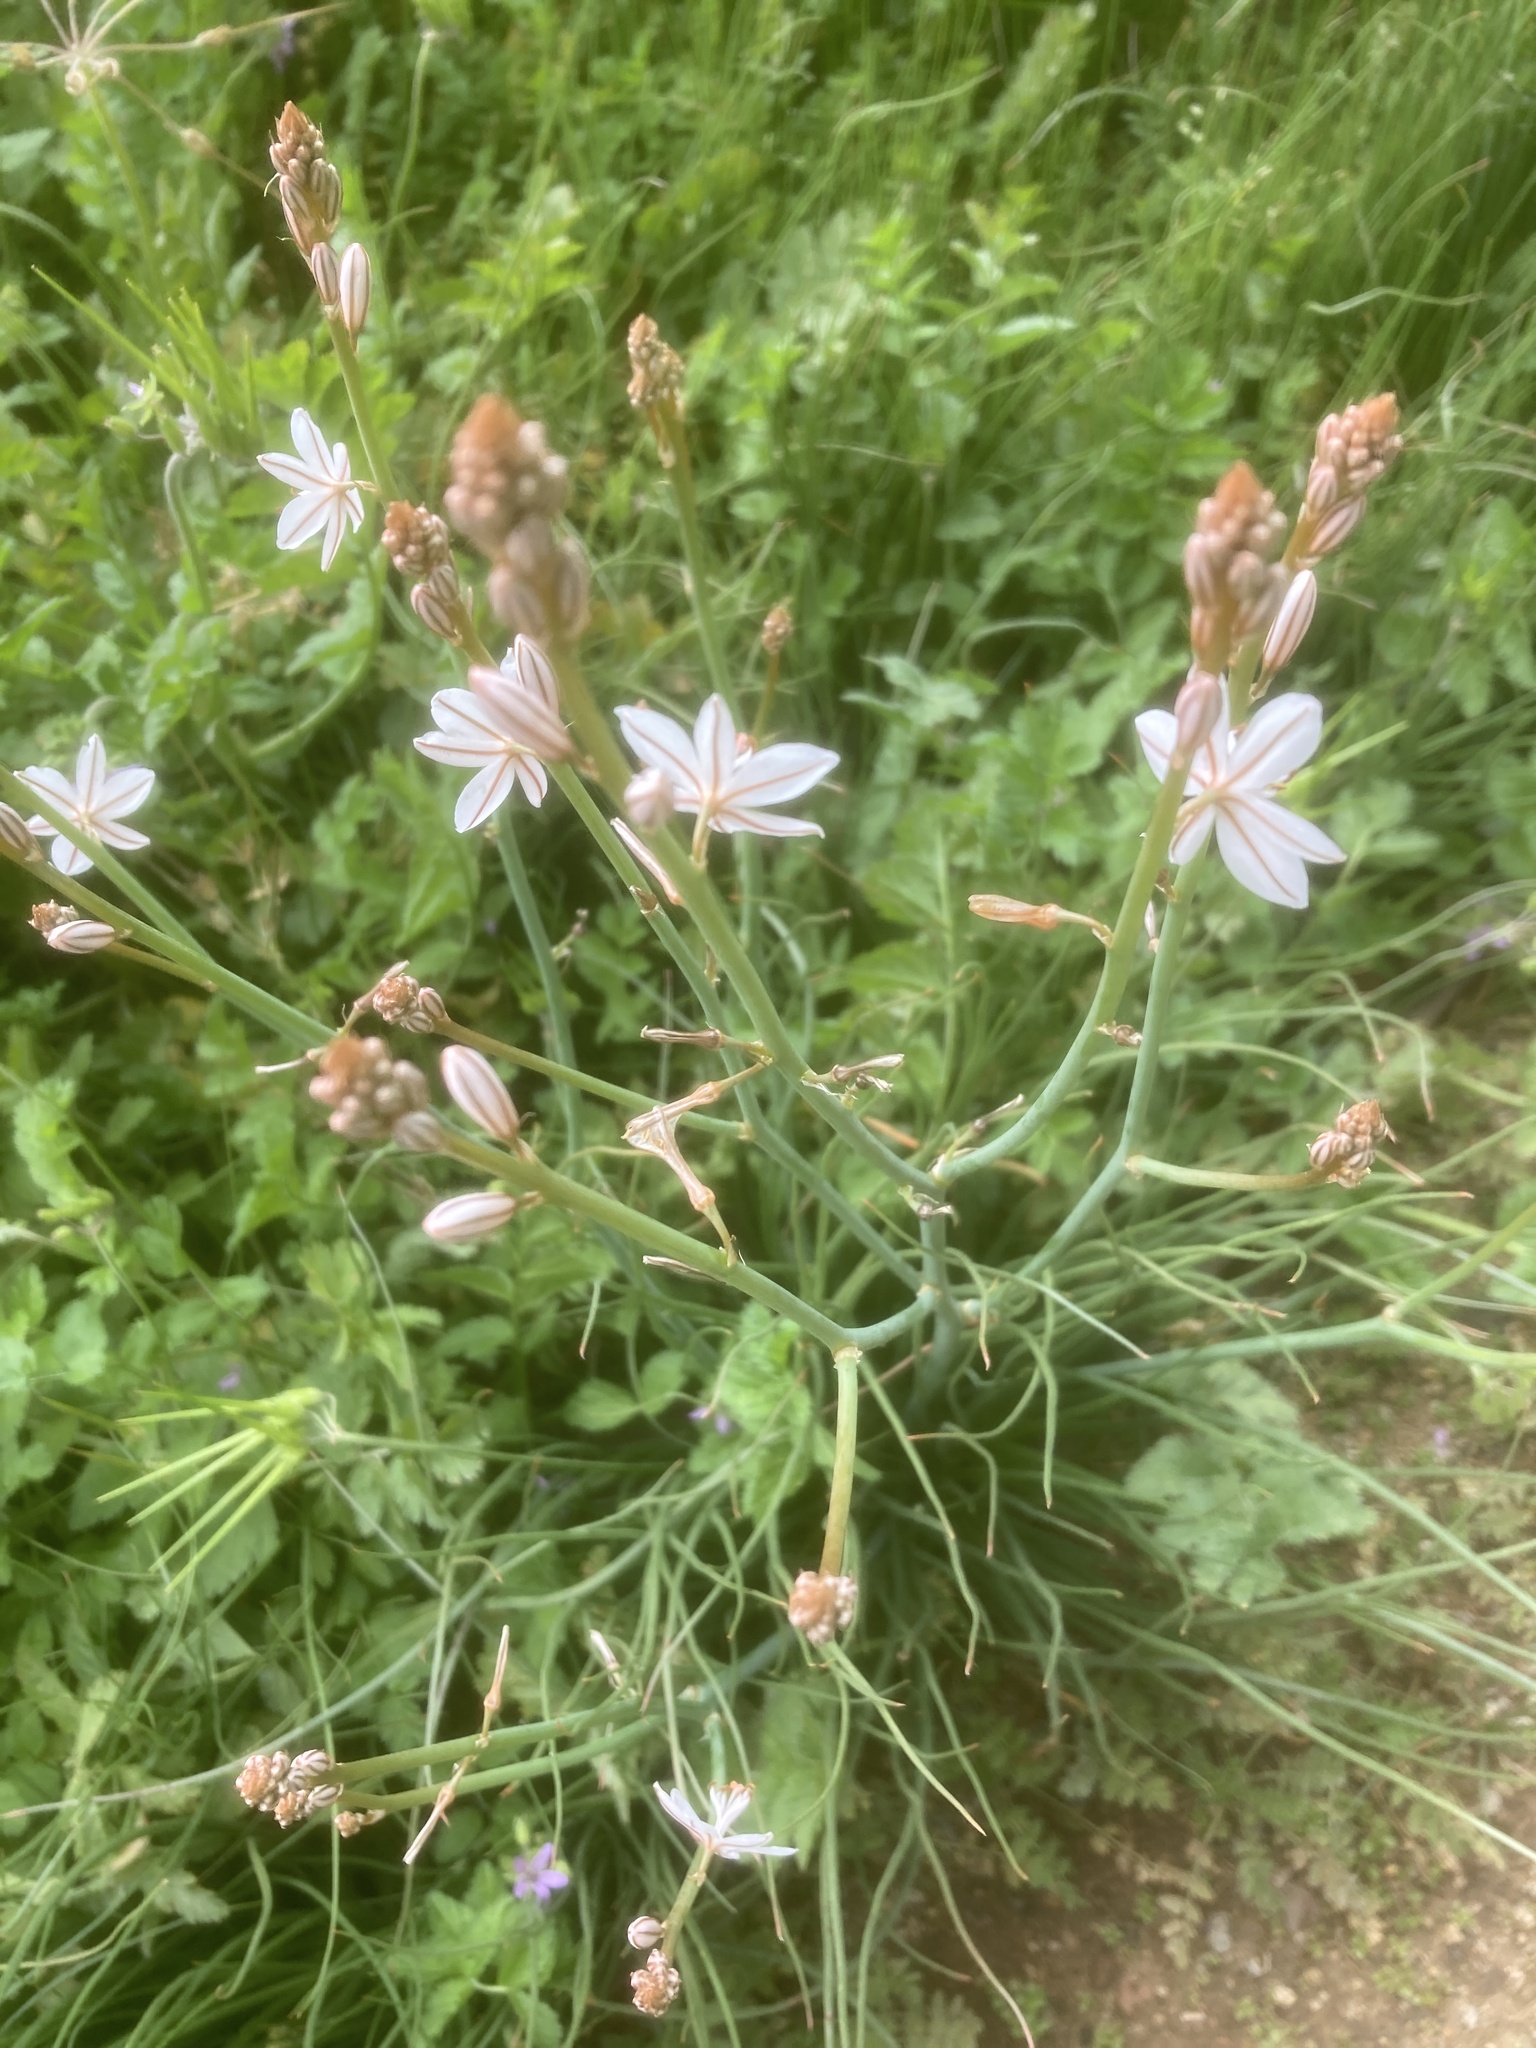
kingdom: Plantae
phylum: Tracheophyta
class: Liliopsida
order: Asparagales
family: Asphodelaceae
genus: Asphodelus
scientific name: Asphodelus fistulosus
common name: Onionweed
